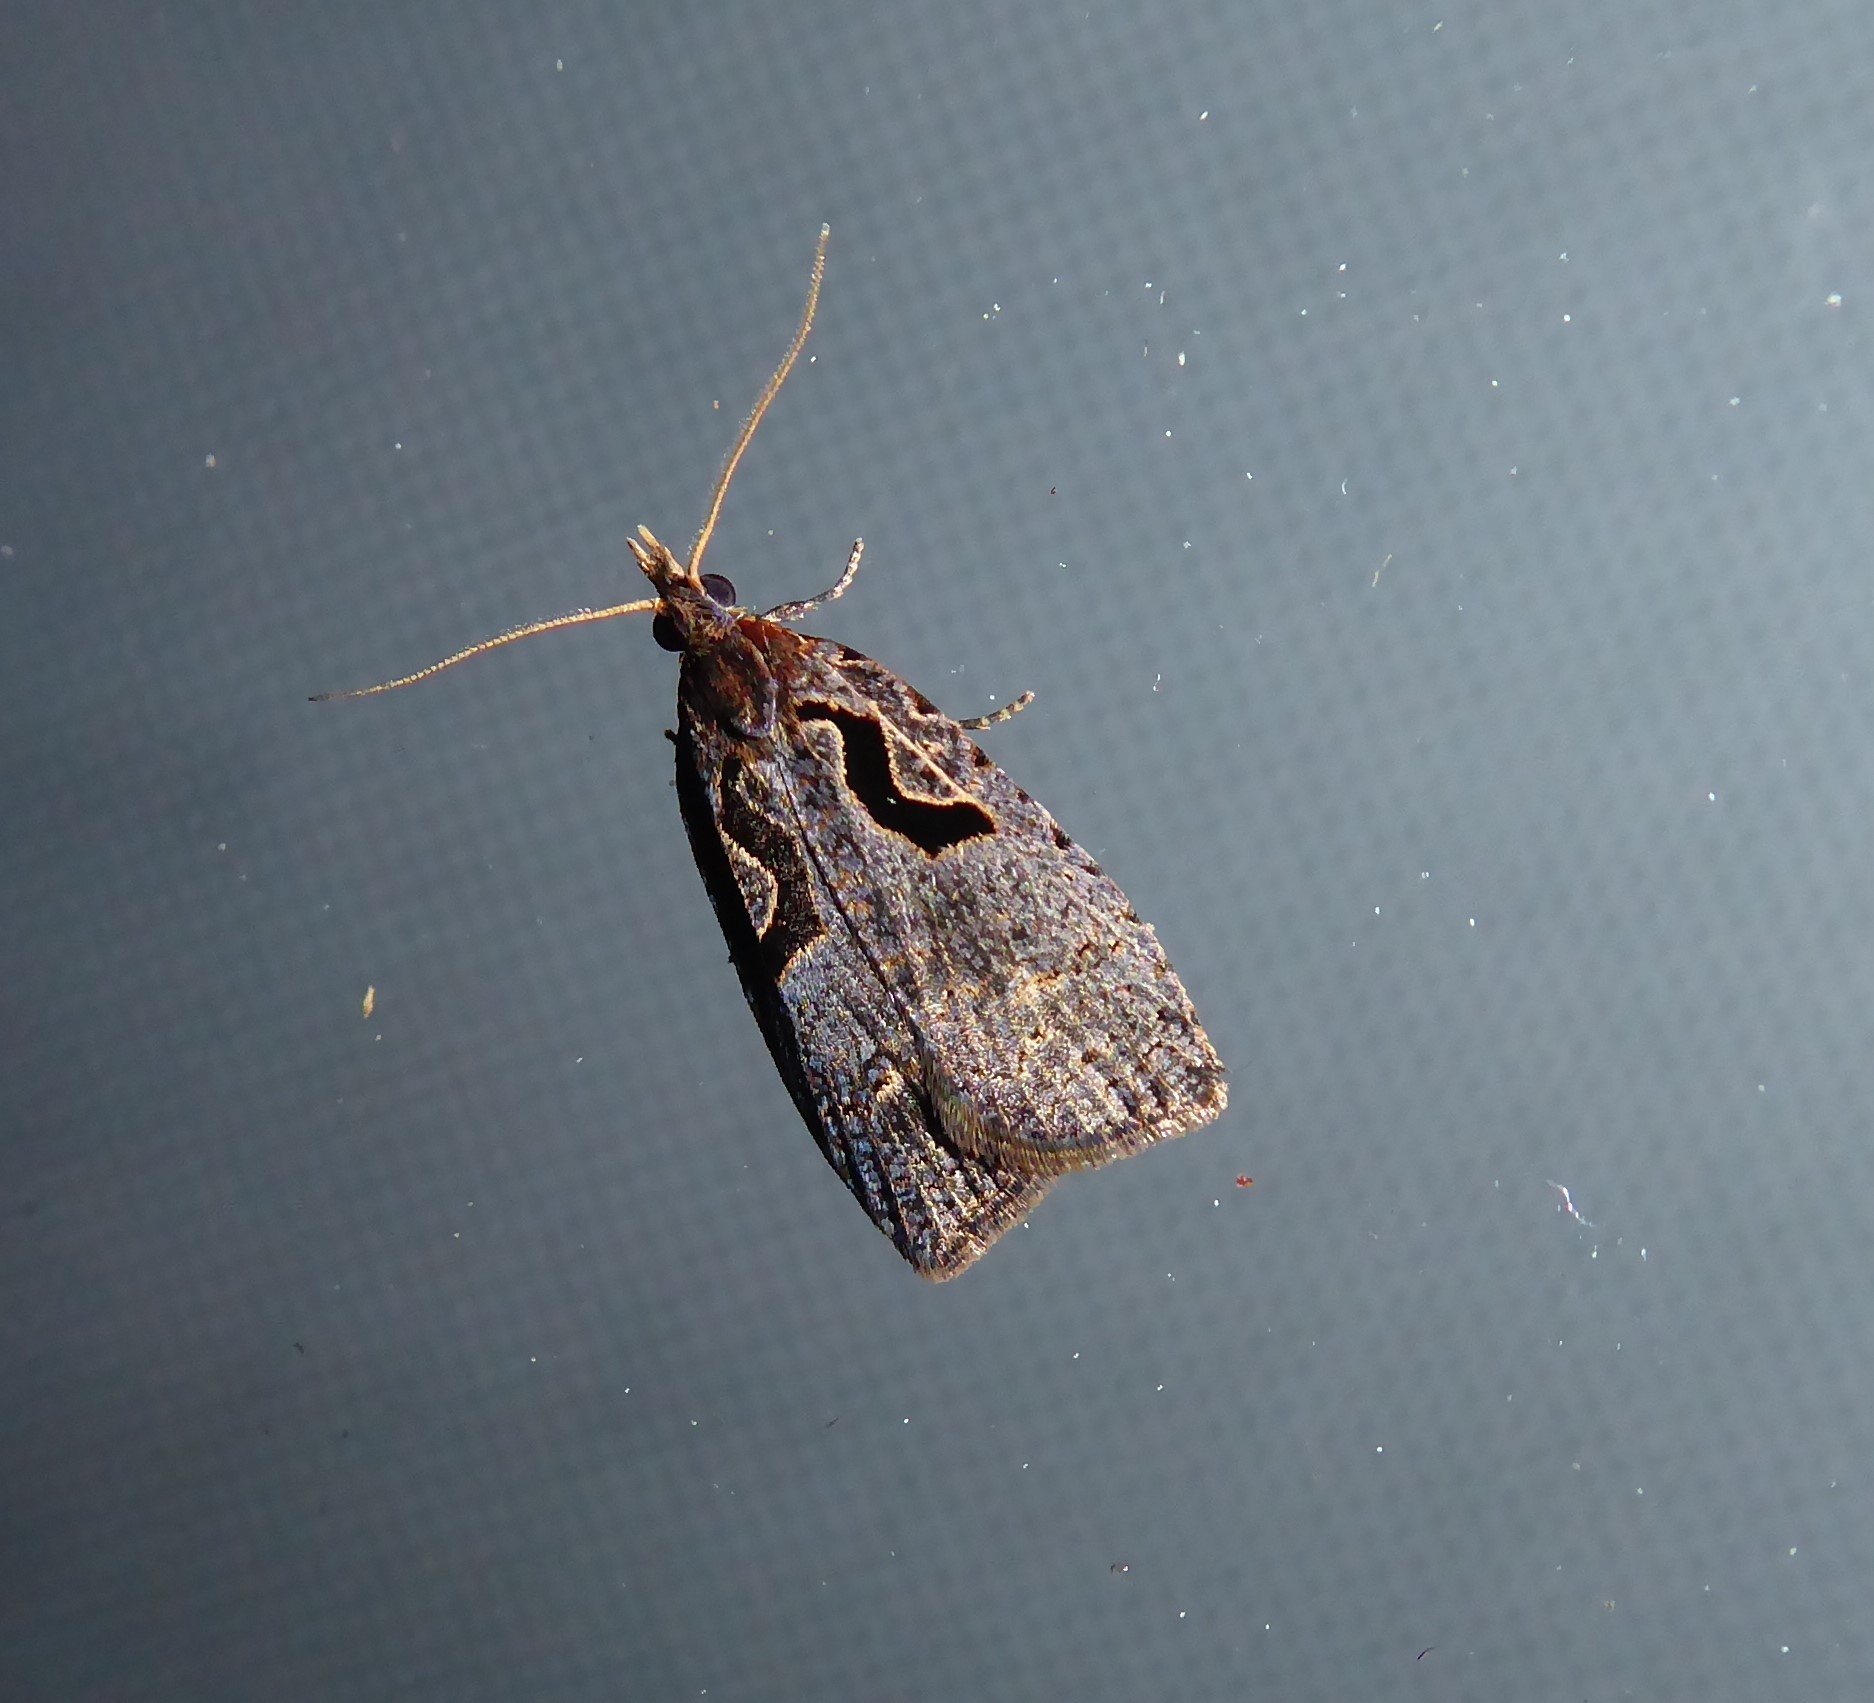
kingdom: Animalia
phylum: Arthropoda
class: Insecta
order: Lepidoptera
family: Tortricidae
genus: Cnephasia
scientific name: Cnephasia jactatana
